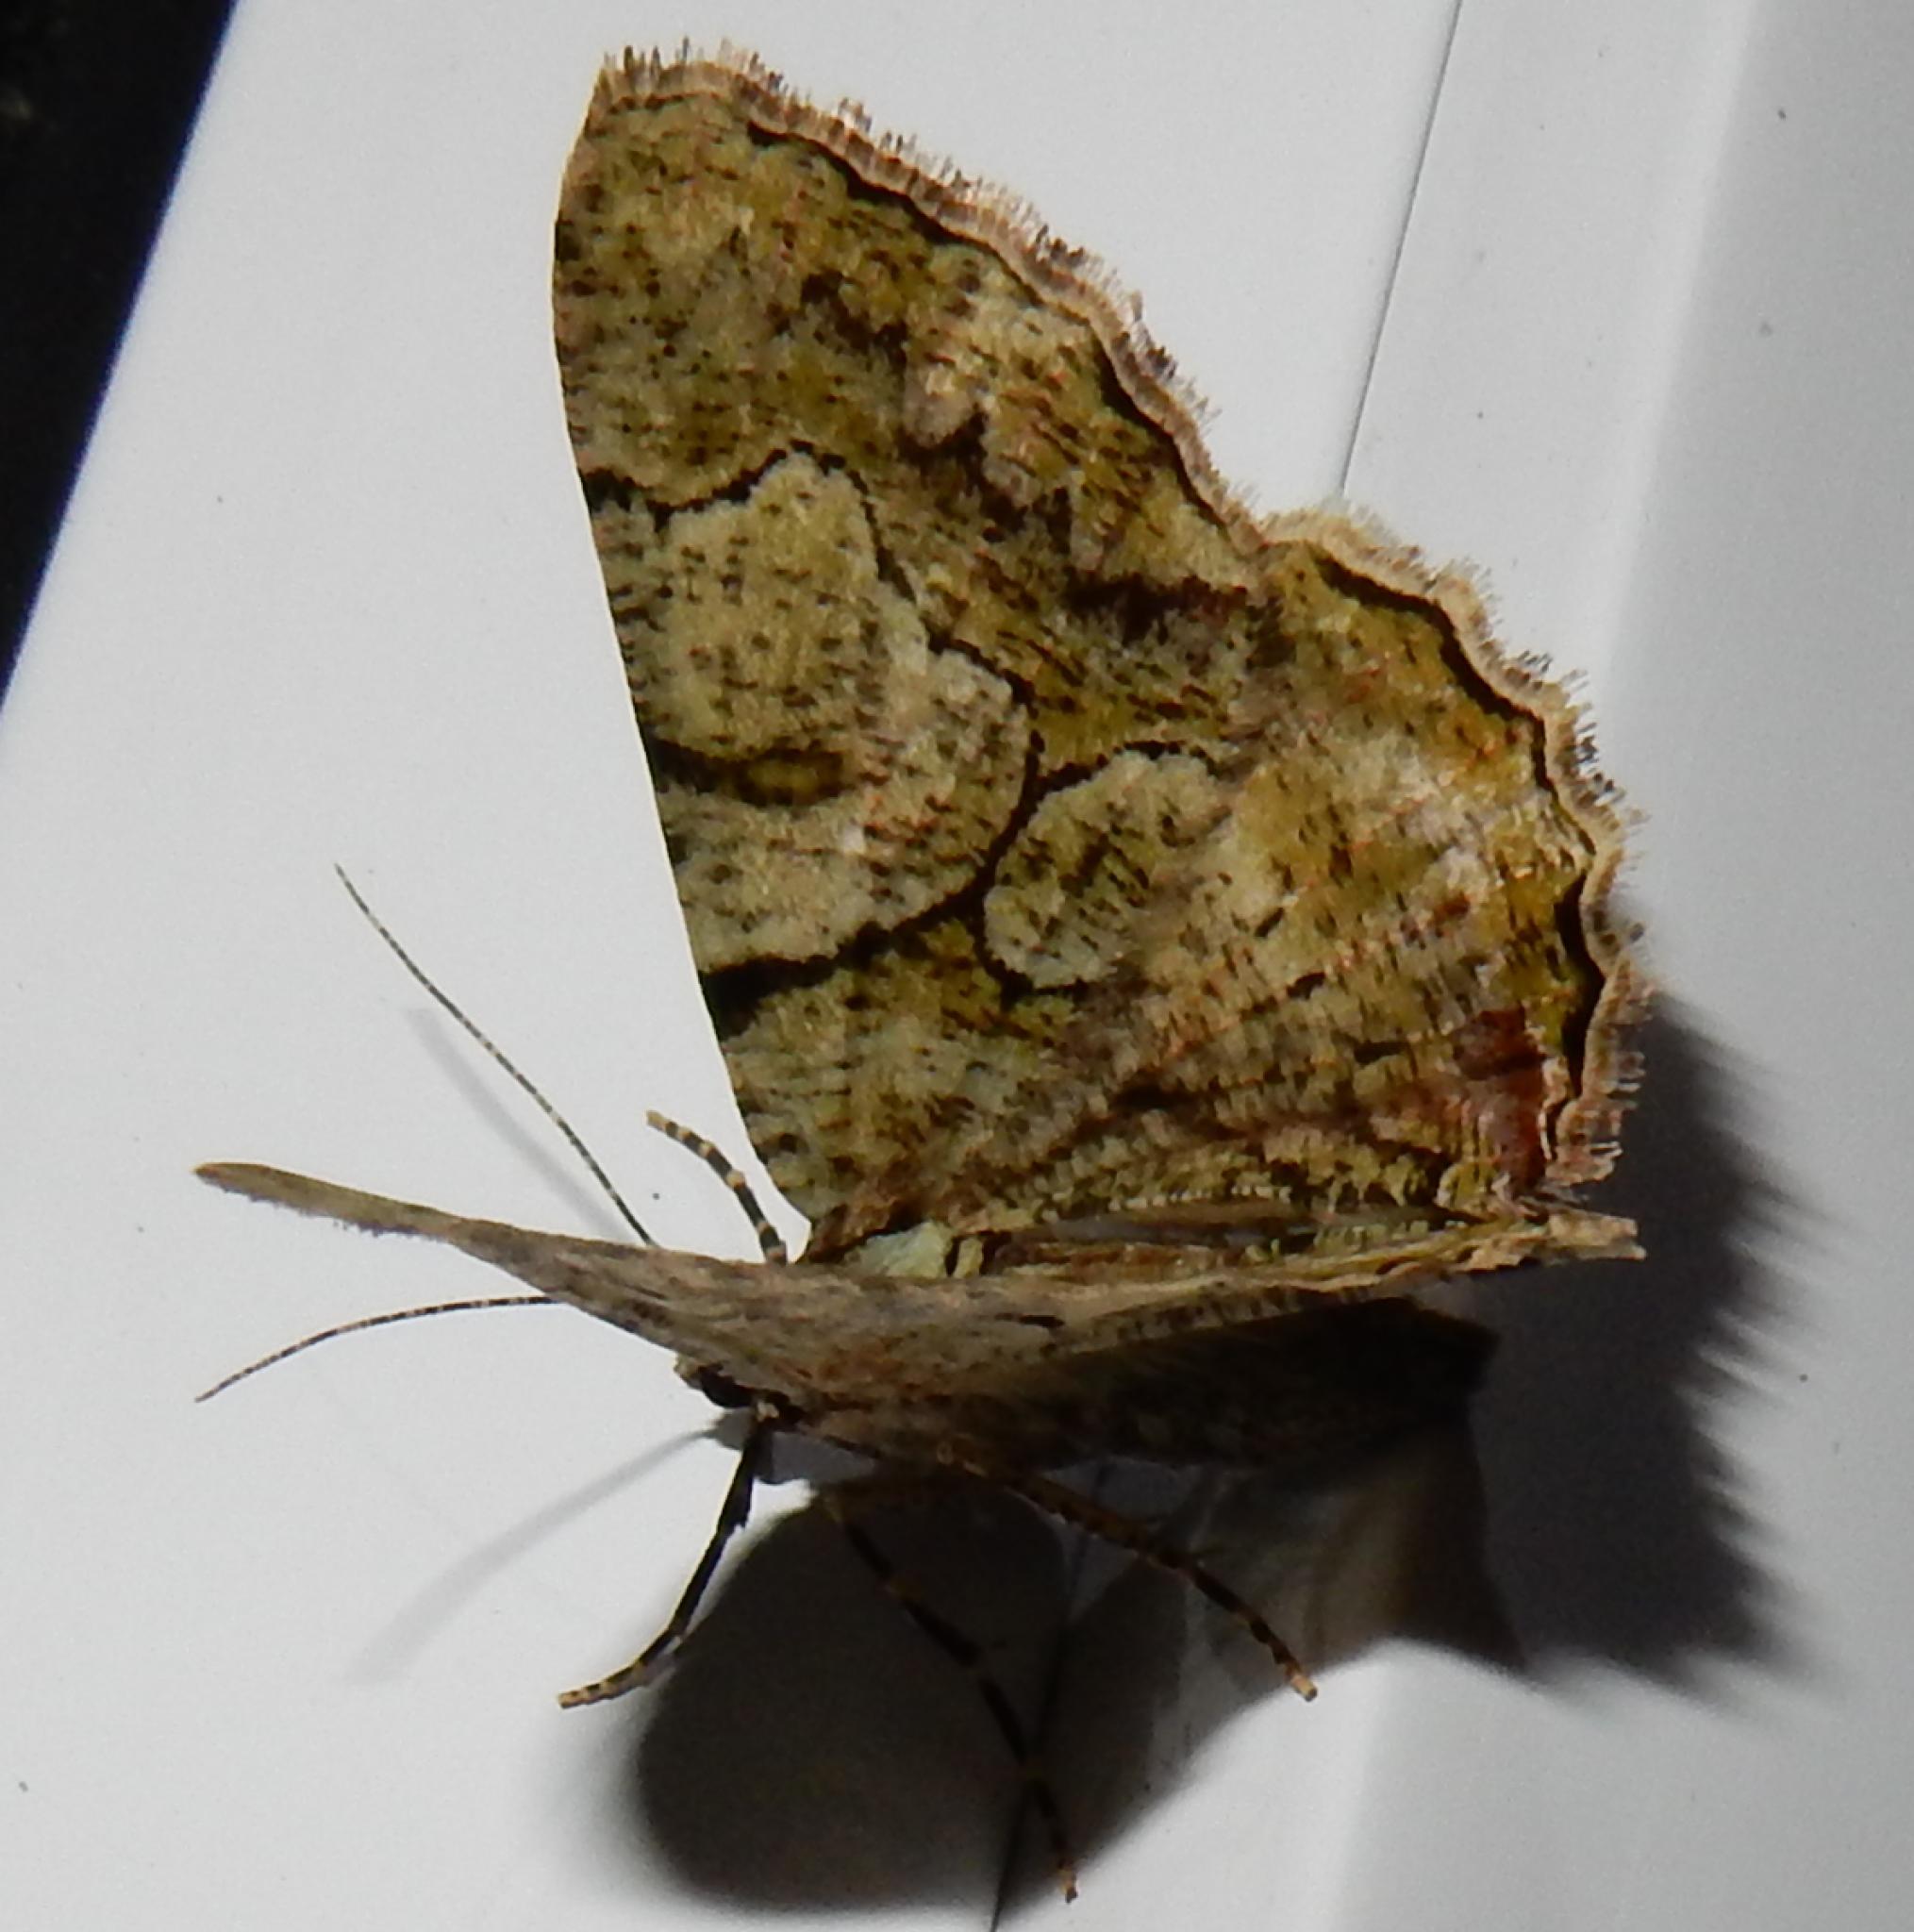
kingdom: Animalia
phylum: Arthropoda
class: Insecta
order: Lepidoptera
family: Geometridae
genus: Xylopteryx
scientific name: Xylopteryx prasinaria
